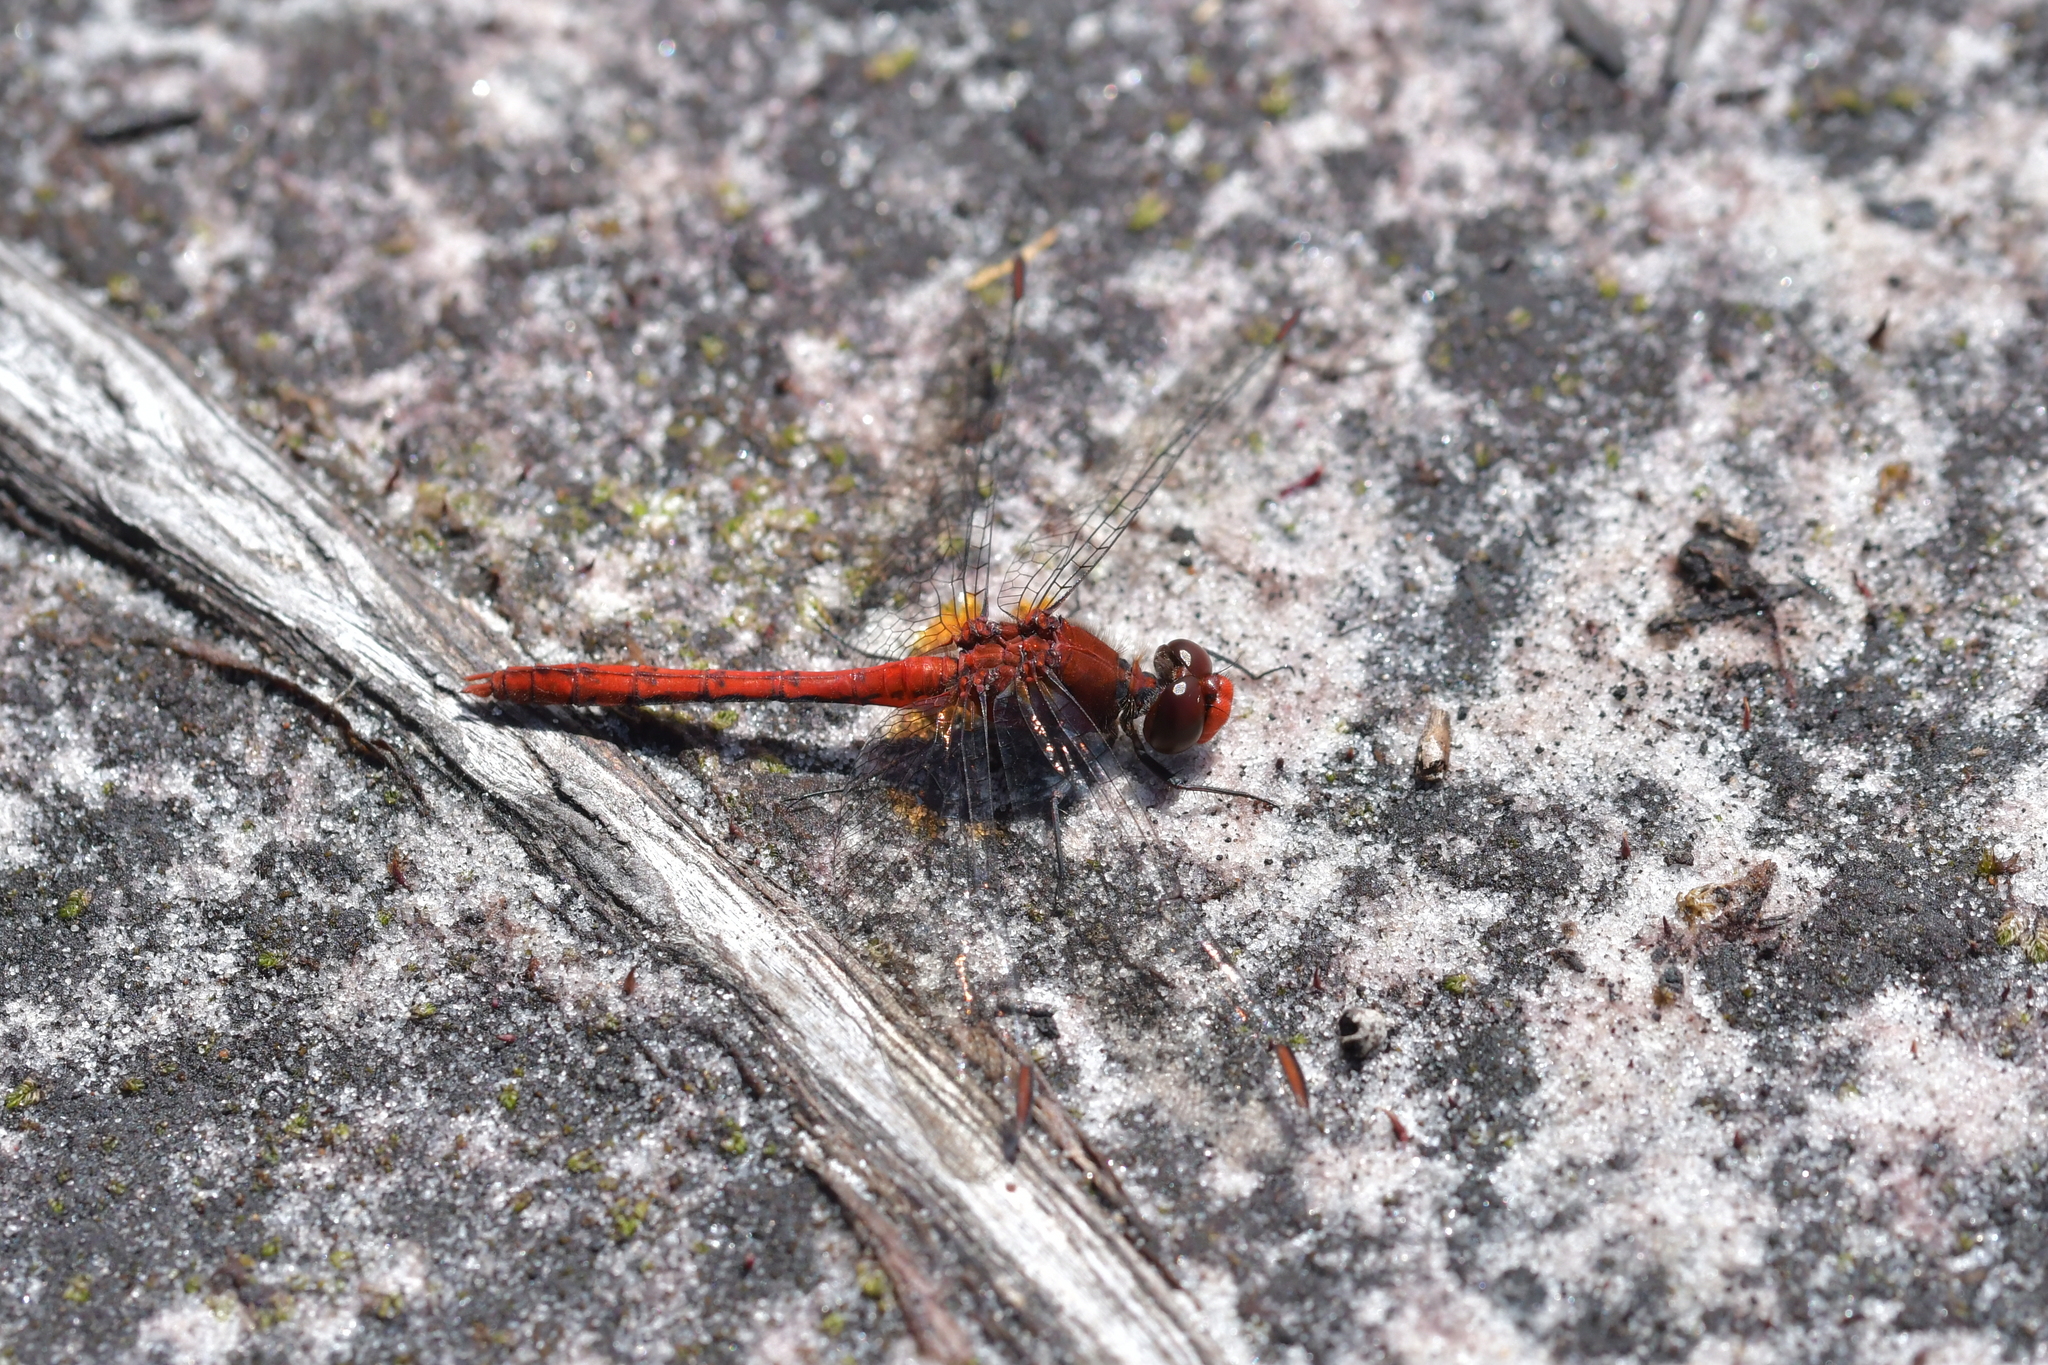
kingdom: Animalia
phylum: Arthropoda
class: Insecta
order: Odonata
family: Libellulidae
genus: Diplacodes
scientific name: Diplacodes bipunctata
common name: Red percher dragonfly
